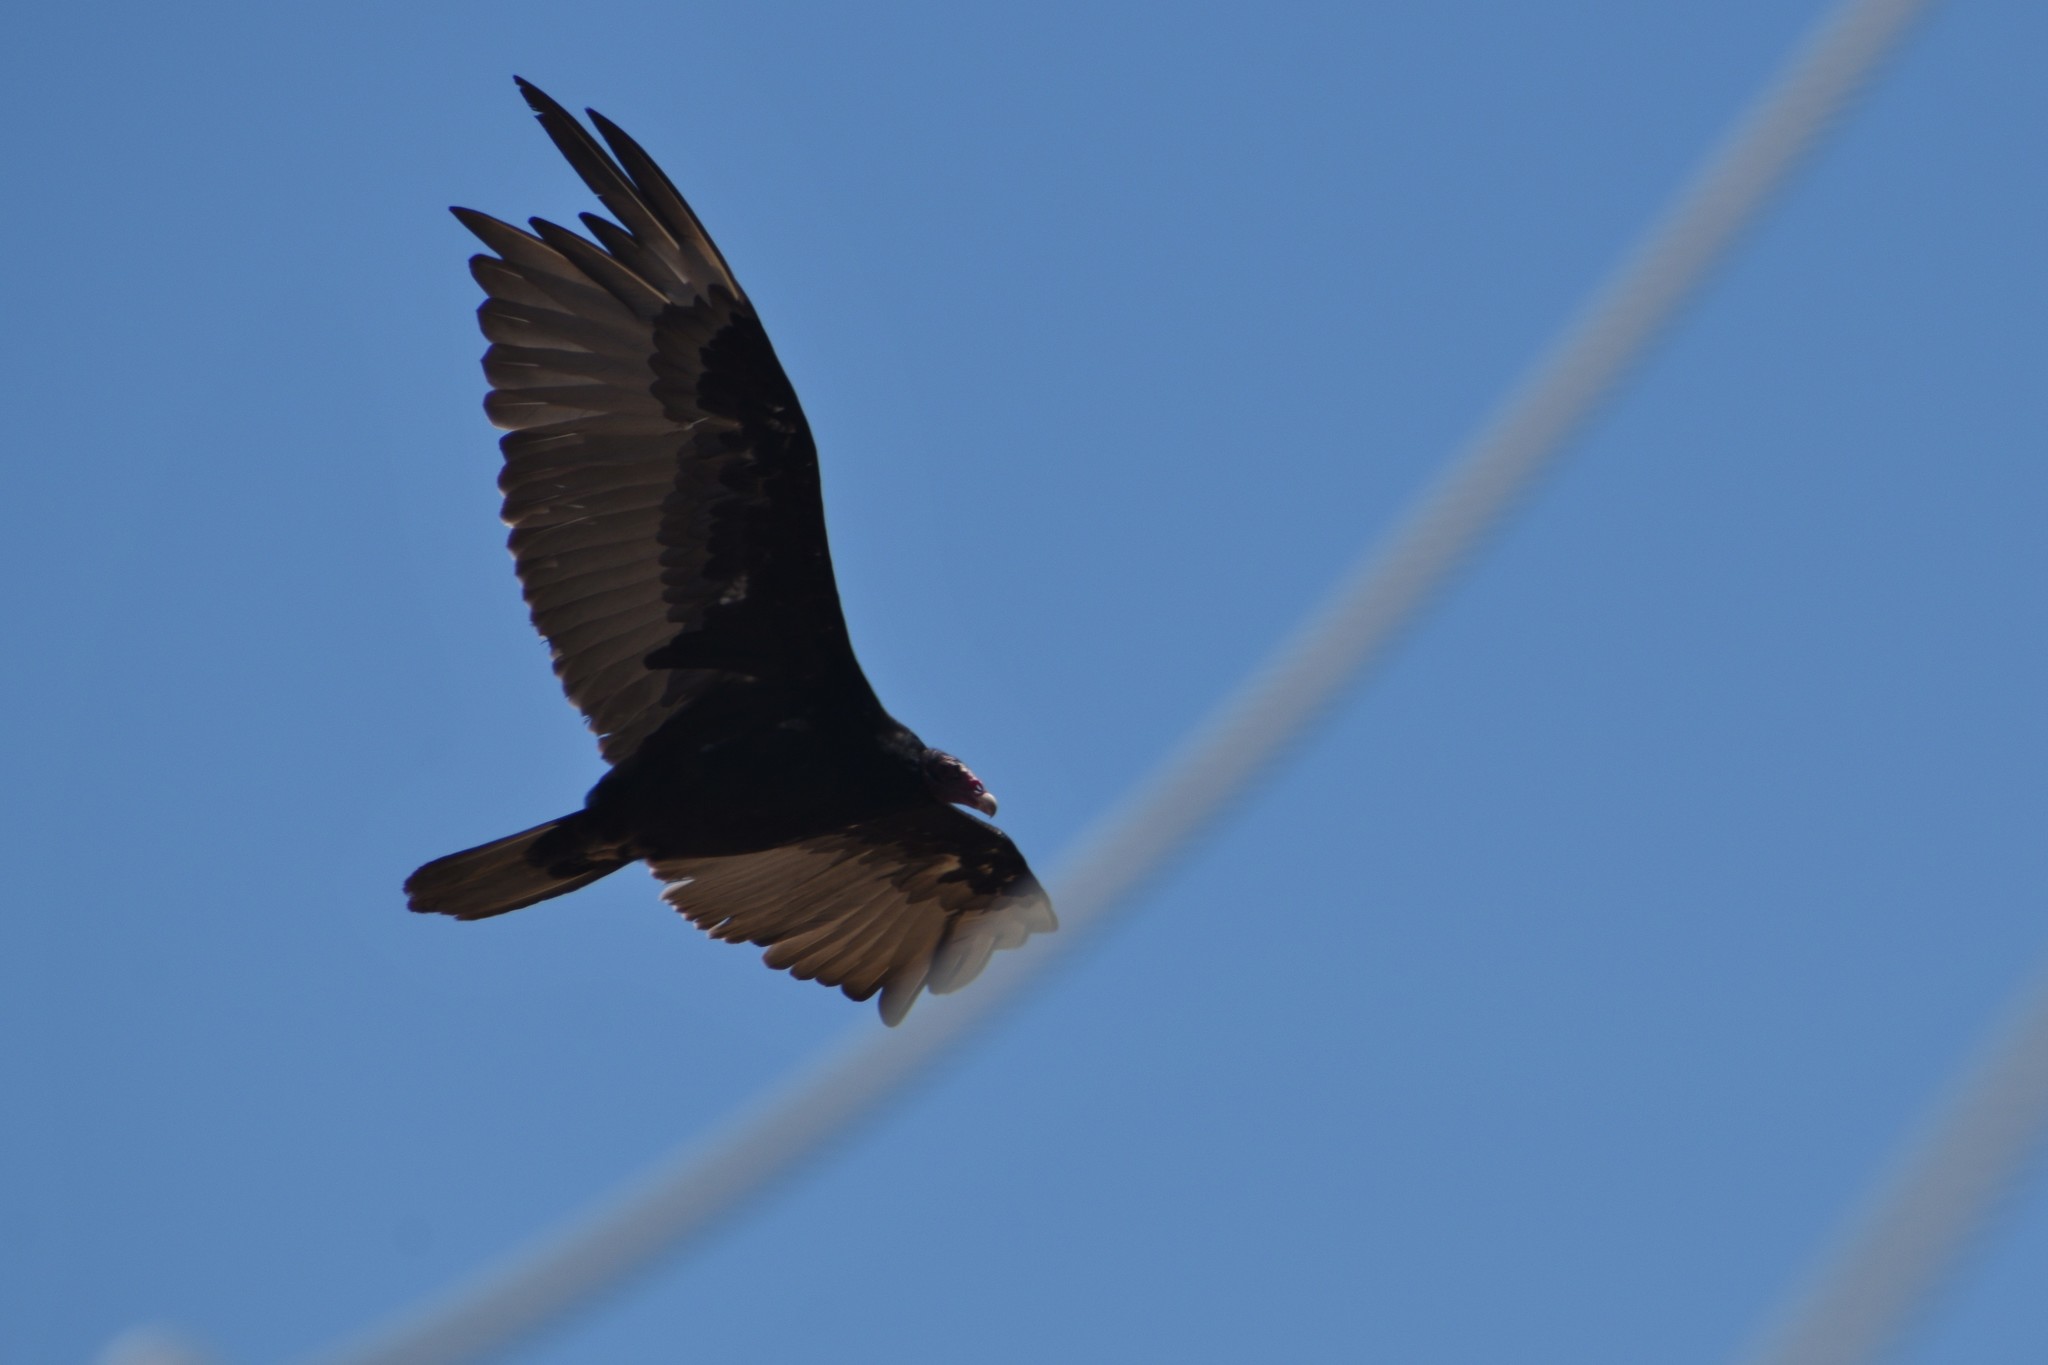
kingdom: Animalia
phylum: Chordata
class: Aves
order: Accipitriformes
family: Cathartidae
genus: Cathartes
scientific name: Cathartes aura
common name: Turkey vulture
